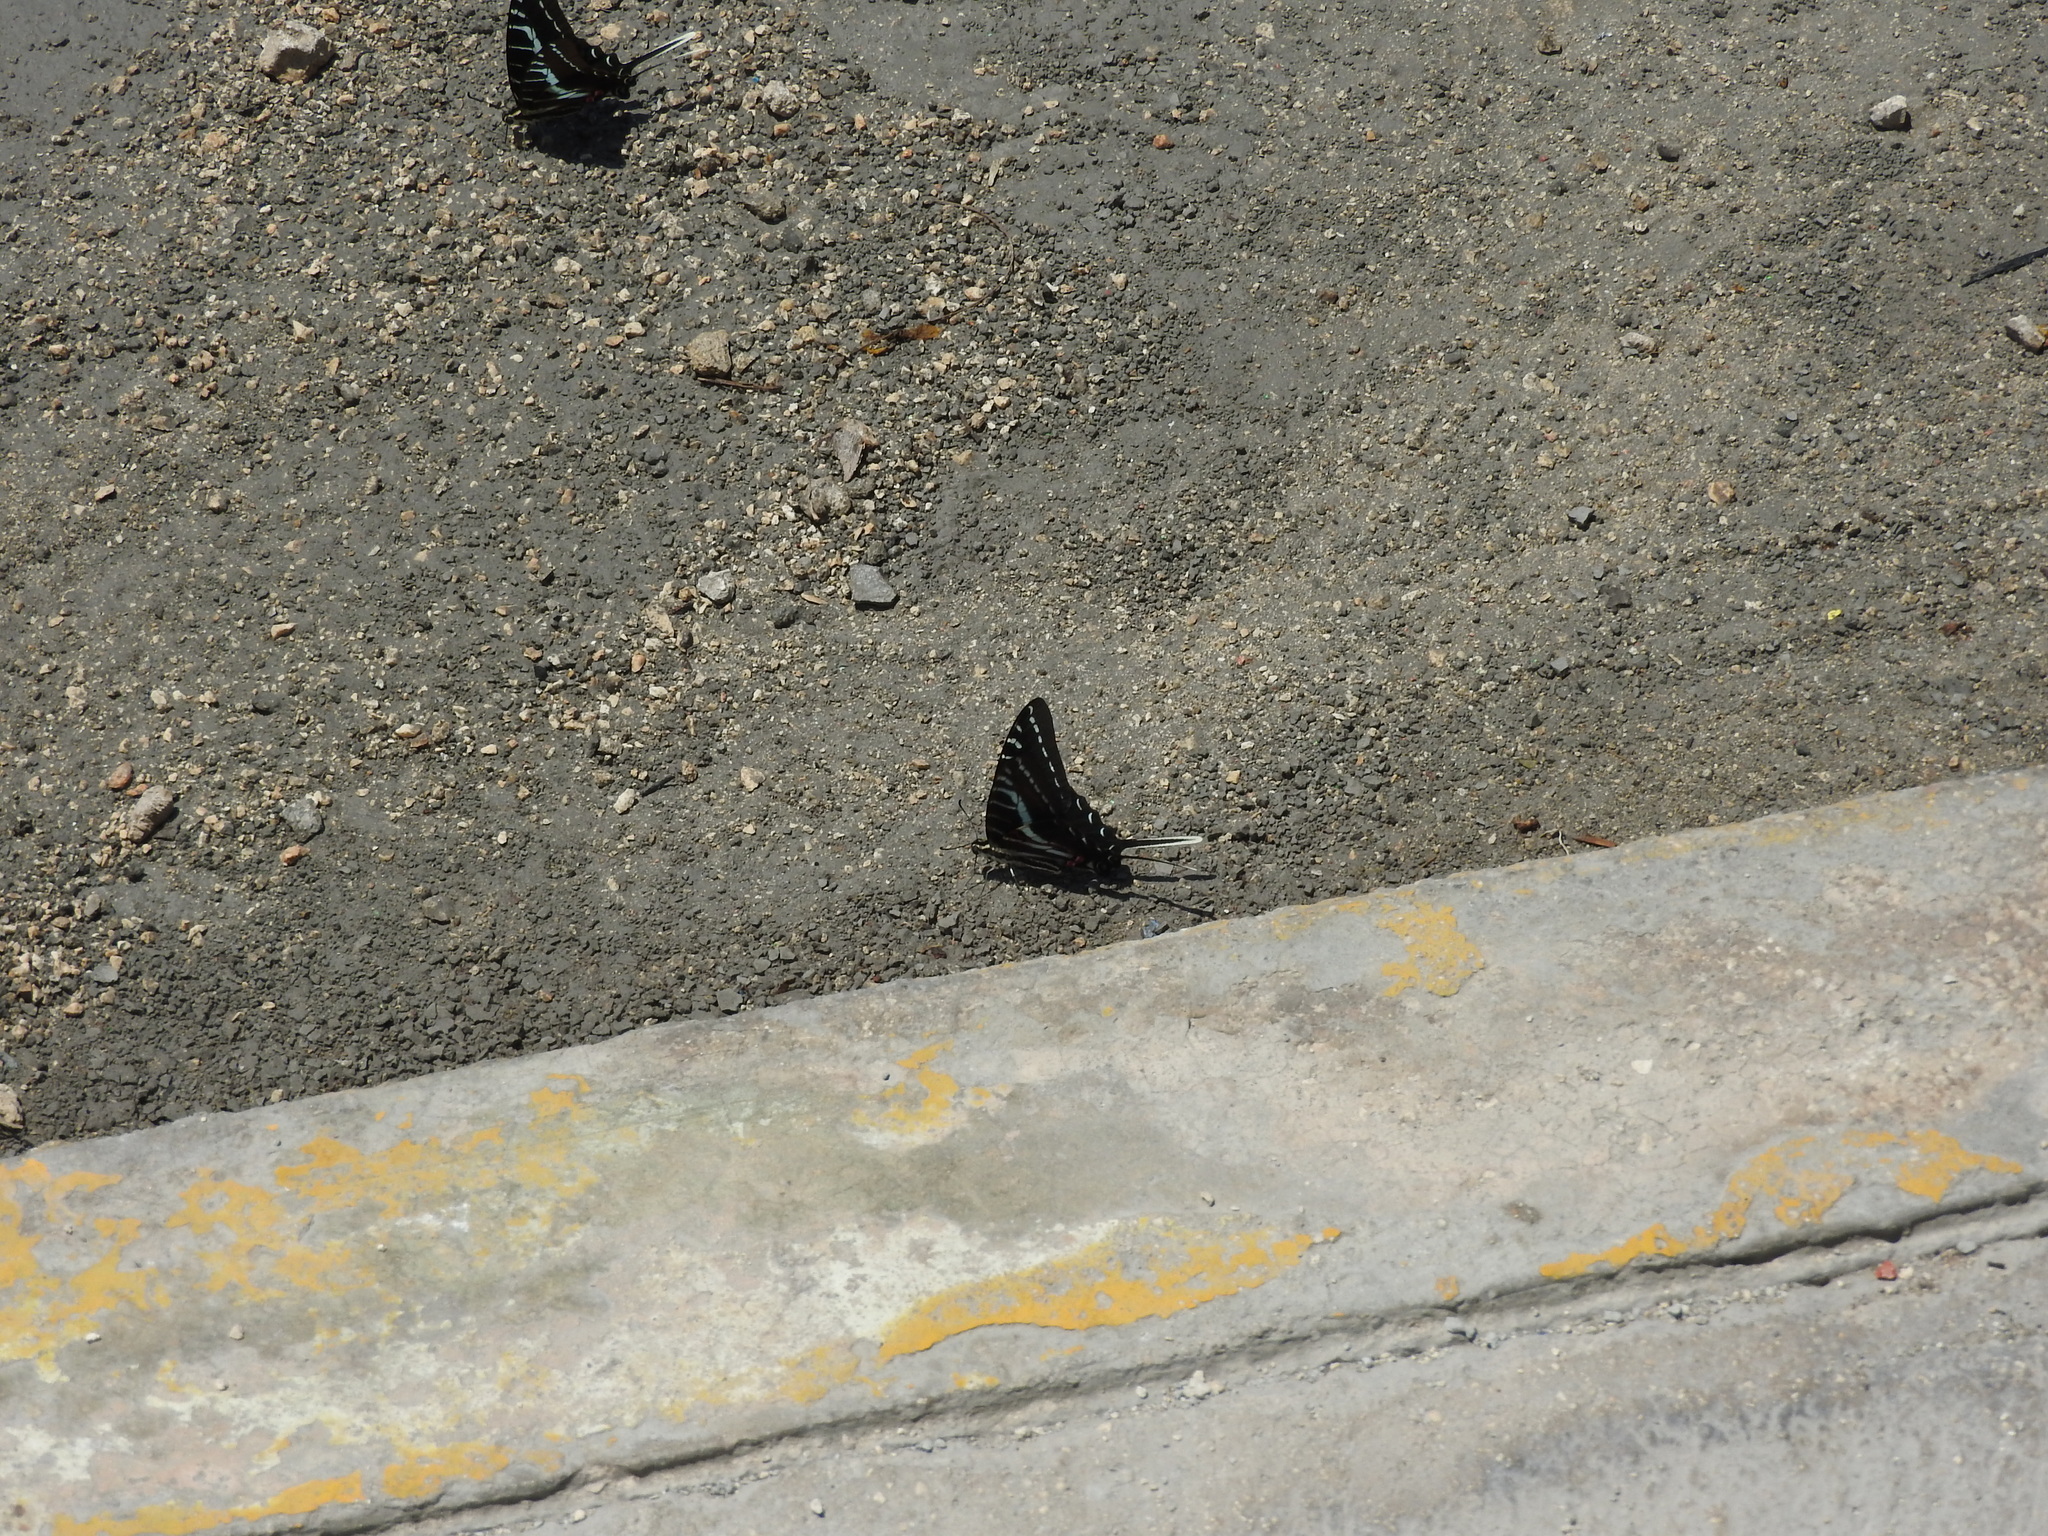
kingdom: Animalia
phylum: Arthropoda
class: Insecta
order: Lepidoptera
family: Papilionidae
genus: Protographium
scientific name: Protographium philolaus
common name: Dark zebra swallowtail
